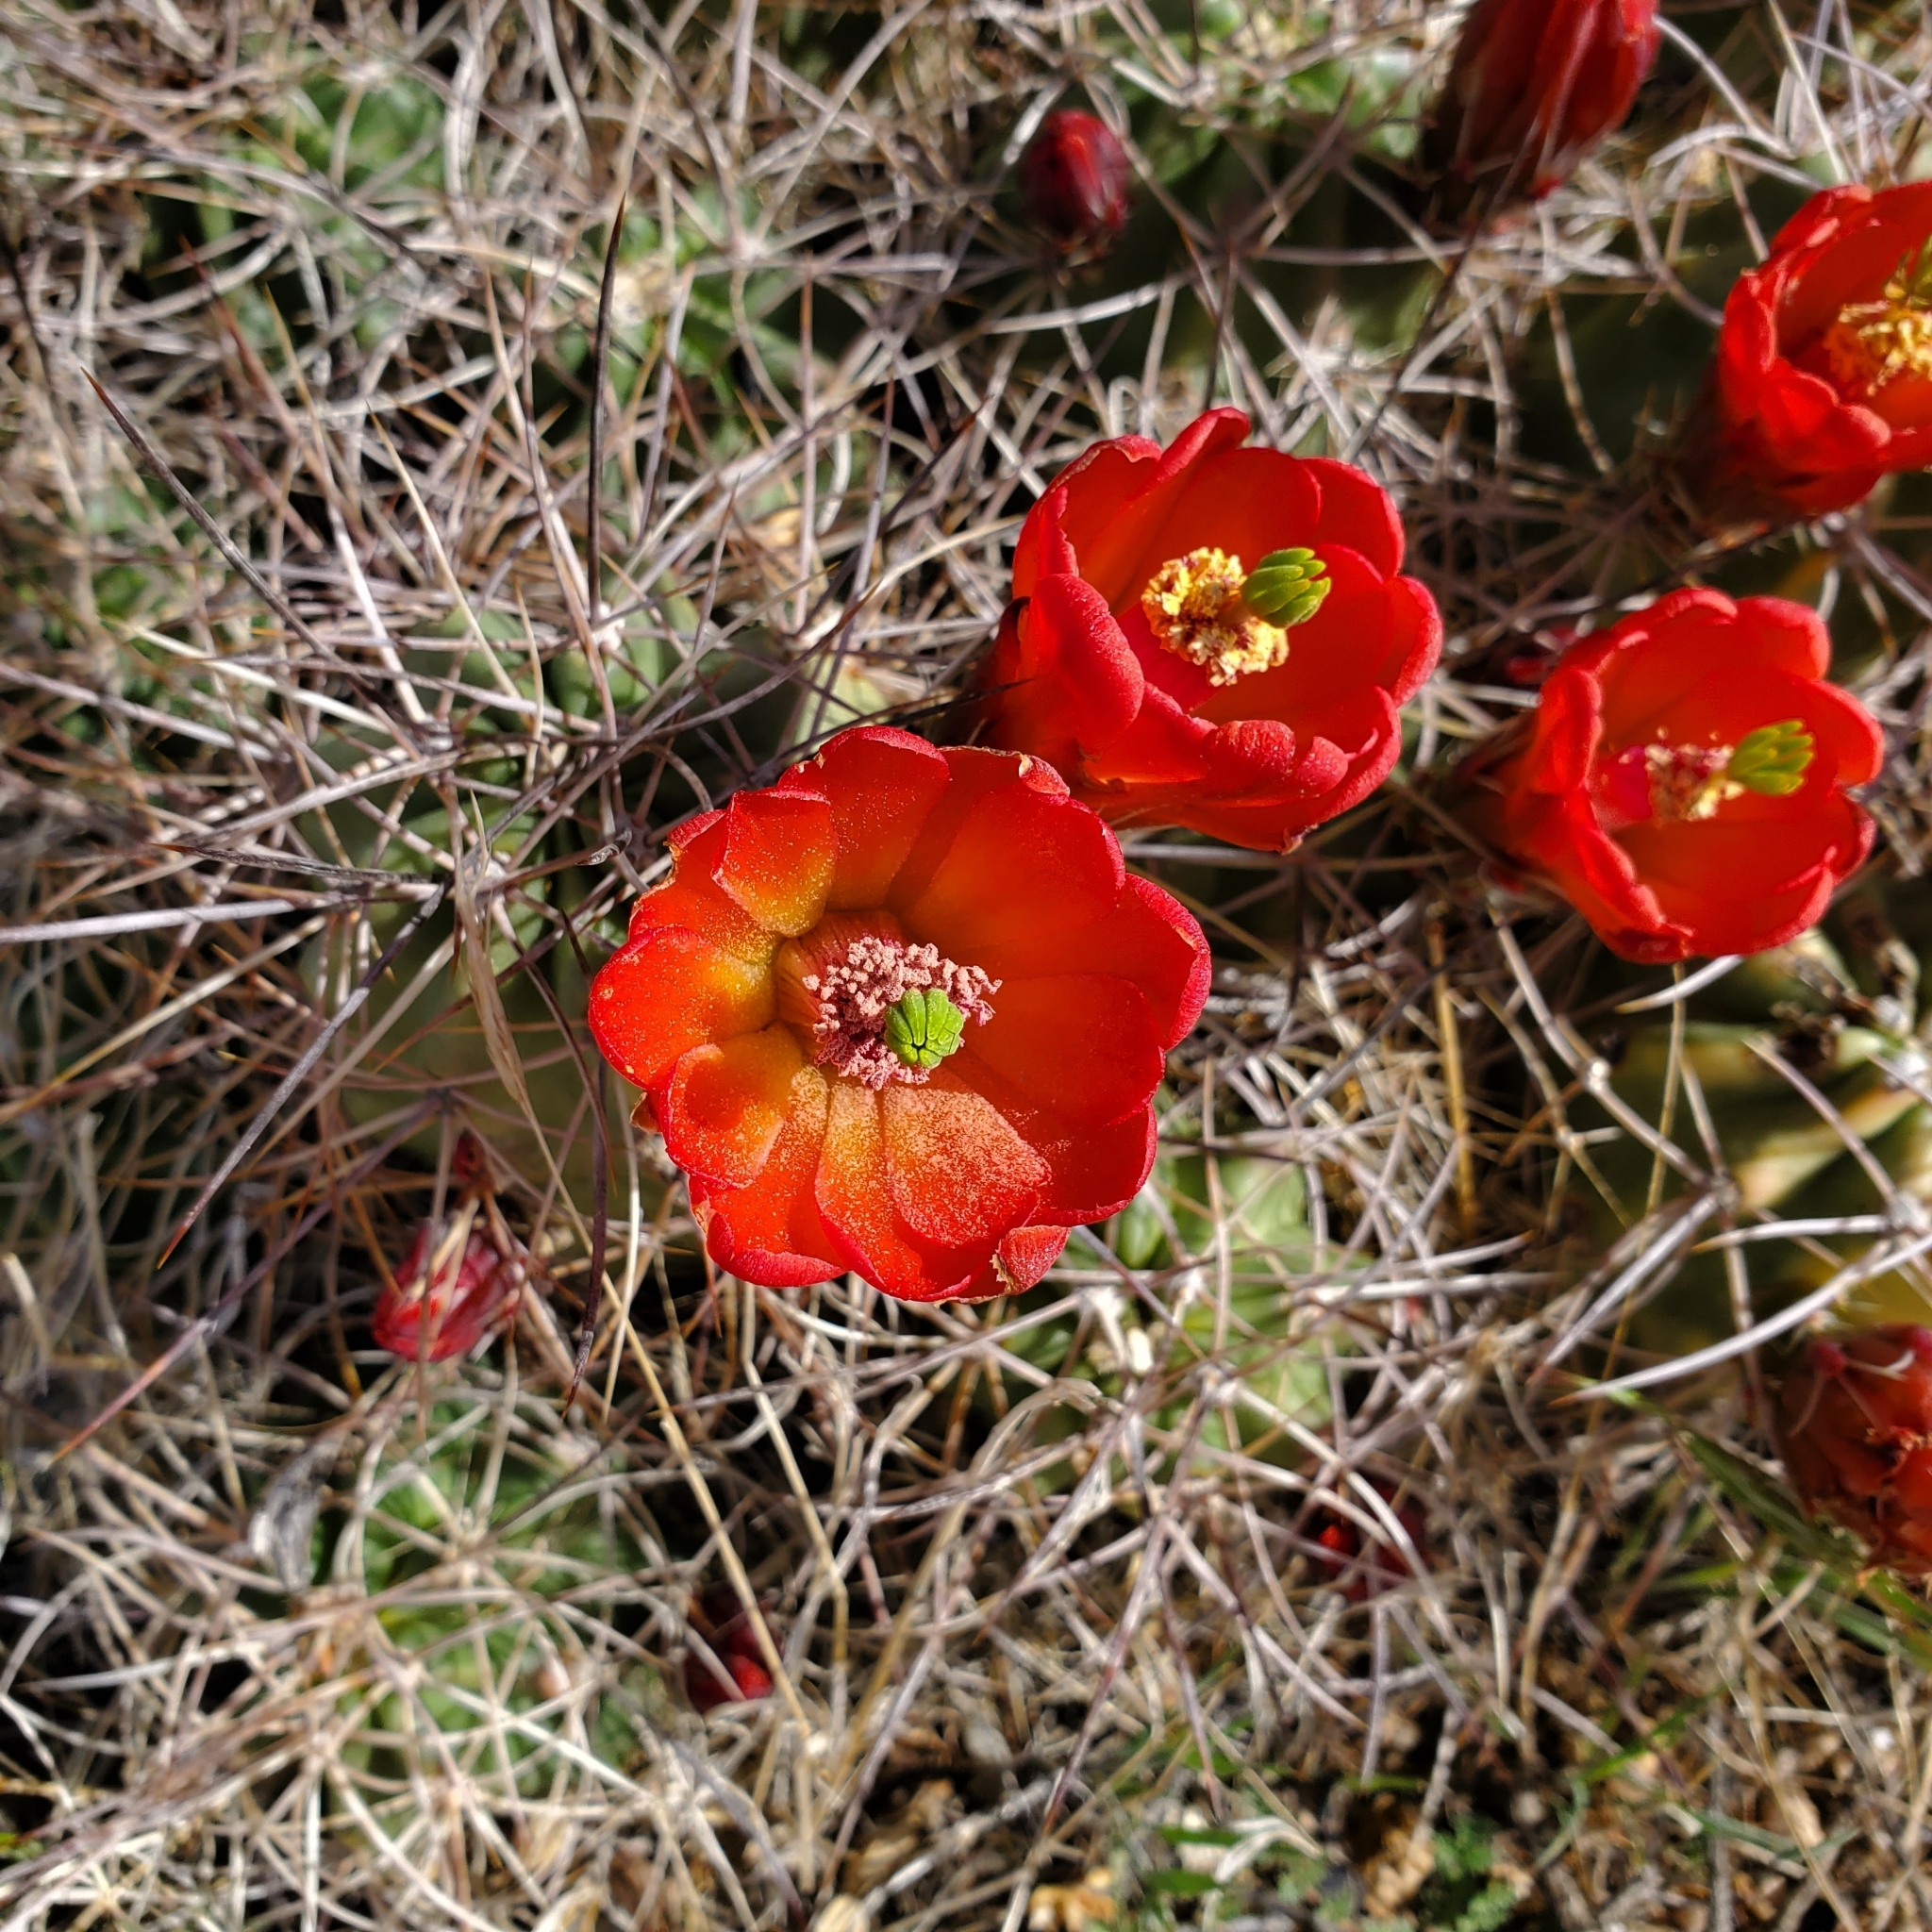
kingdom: Plantae
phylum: Tracheophyta
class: Magnoliopsida
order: Caryophyllales
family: Cactaceae
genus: Echinocereus
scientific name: Echinocereus triglochidiatus
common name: Claretcup hedgehog
